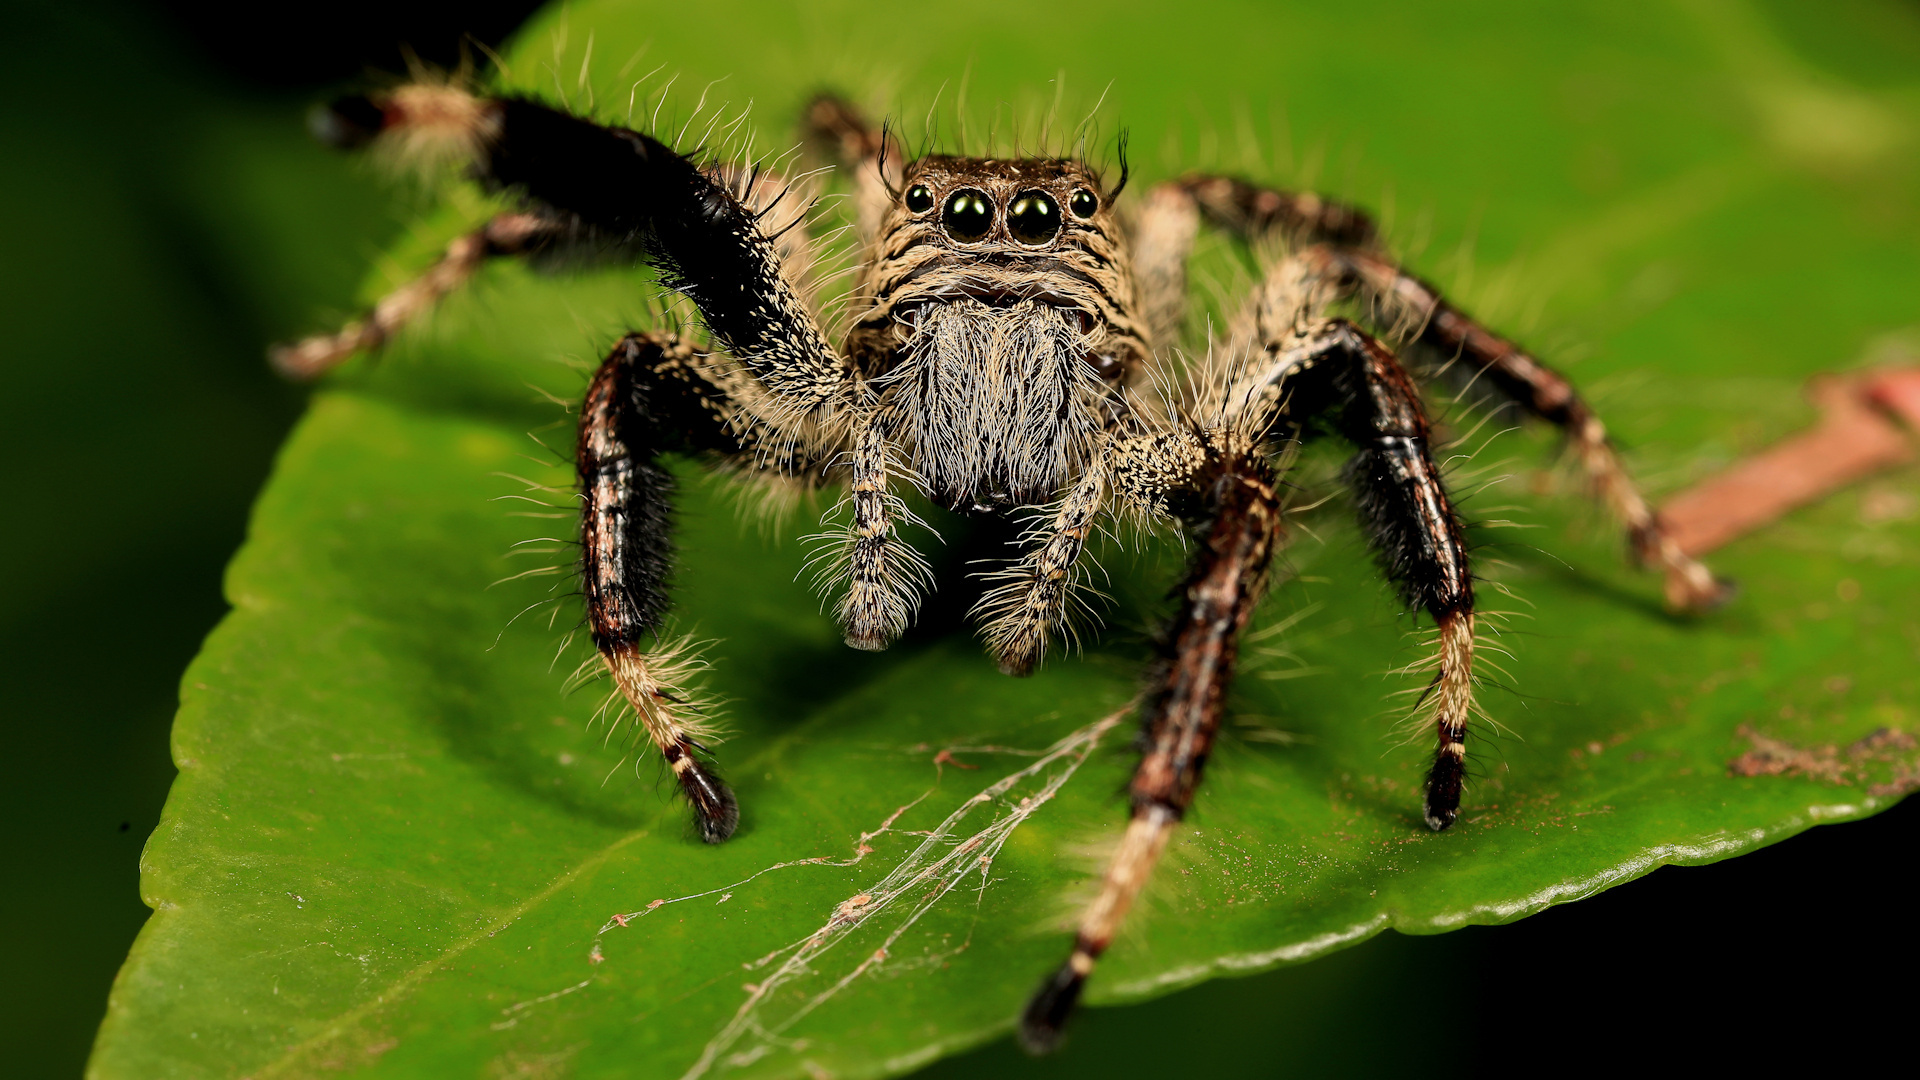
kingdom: Animalia
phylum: Arthropoda
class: Arachnida
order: Araneae
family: Salticidae
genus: Hyllus
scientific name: Hyllus treleaveni
